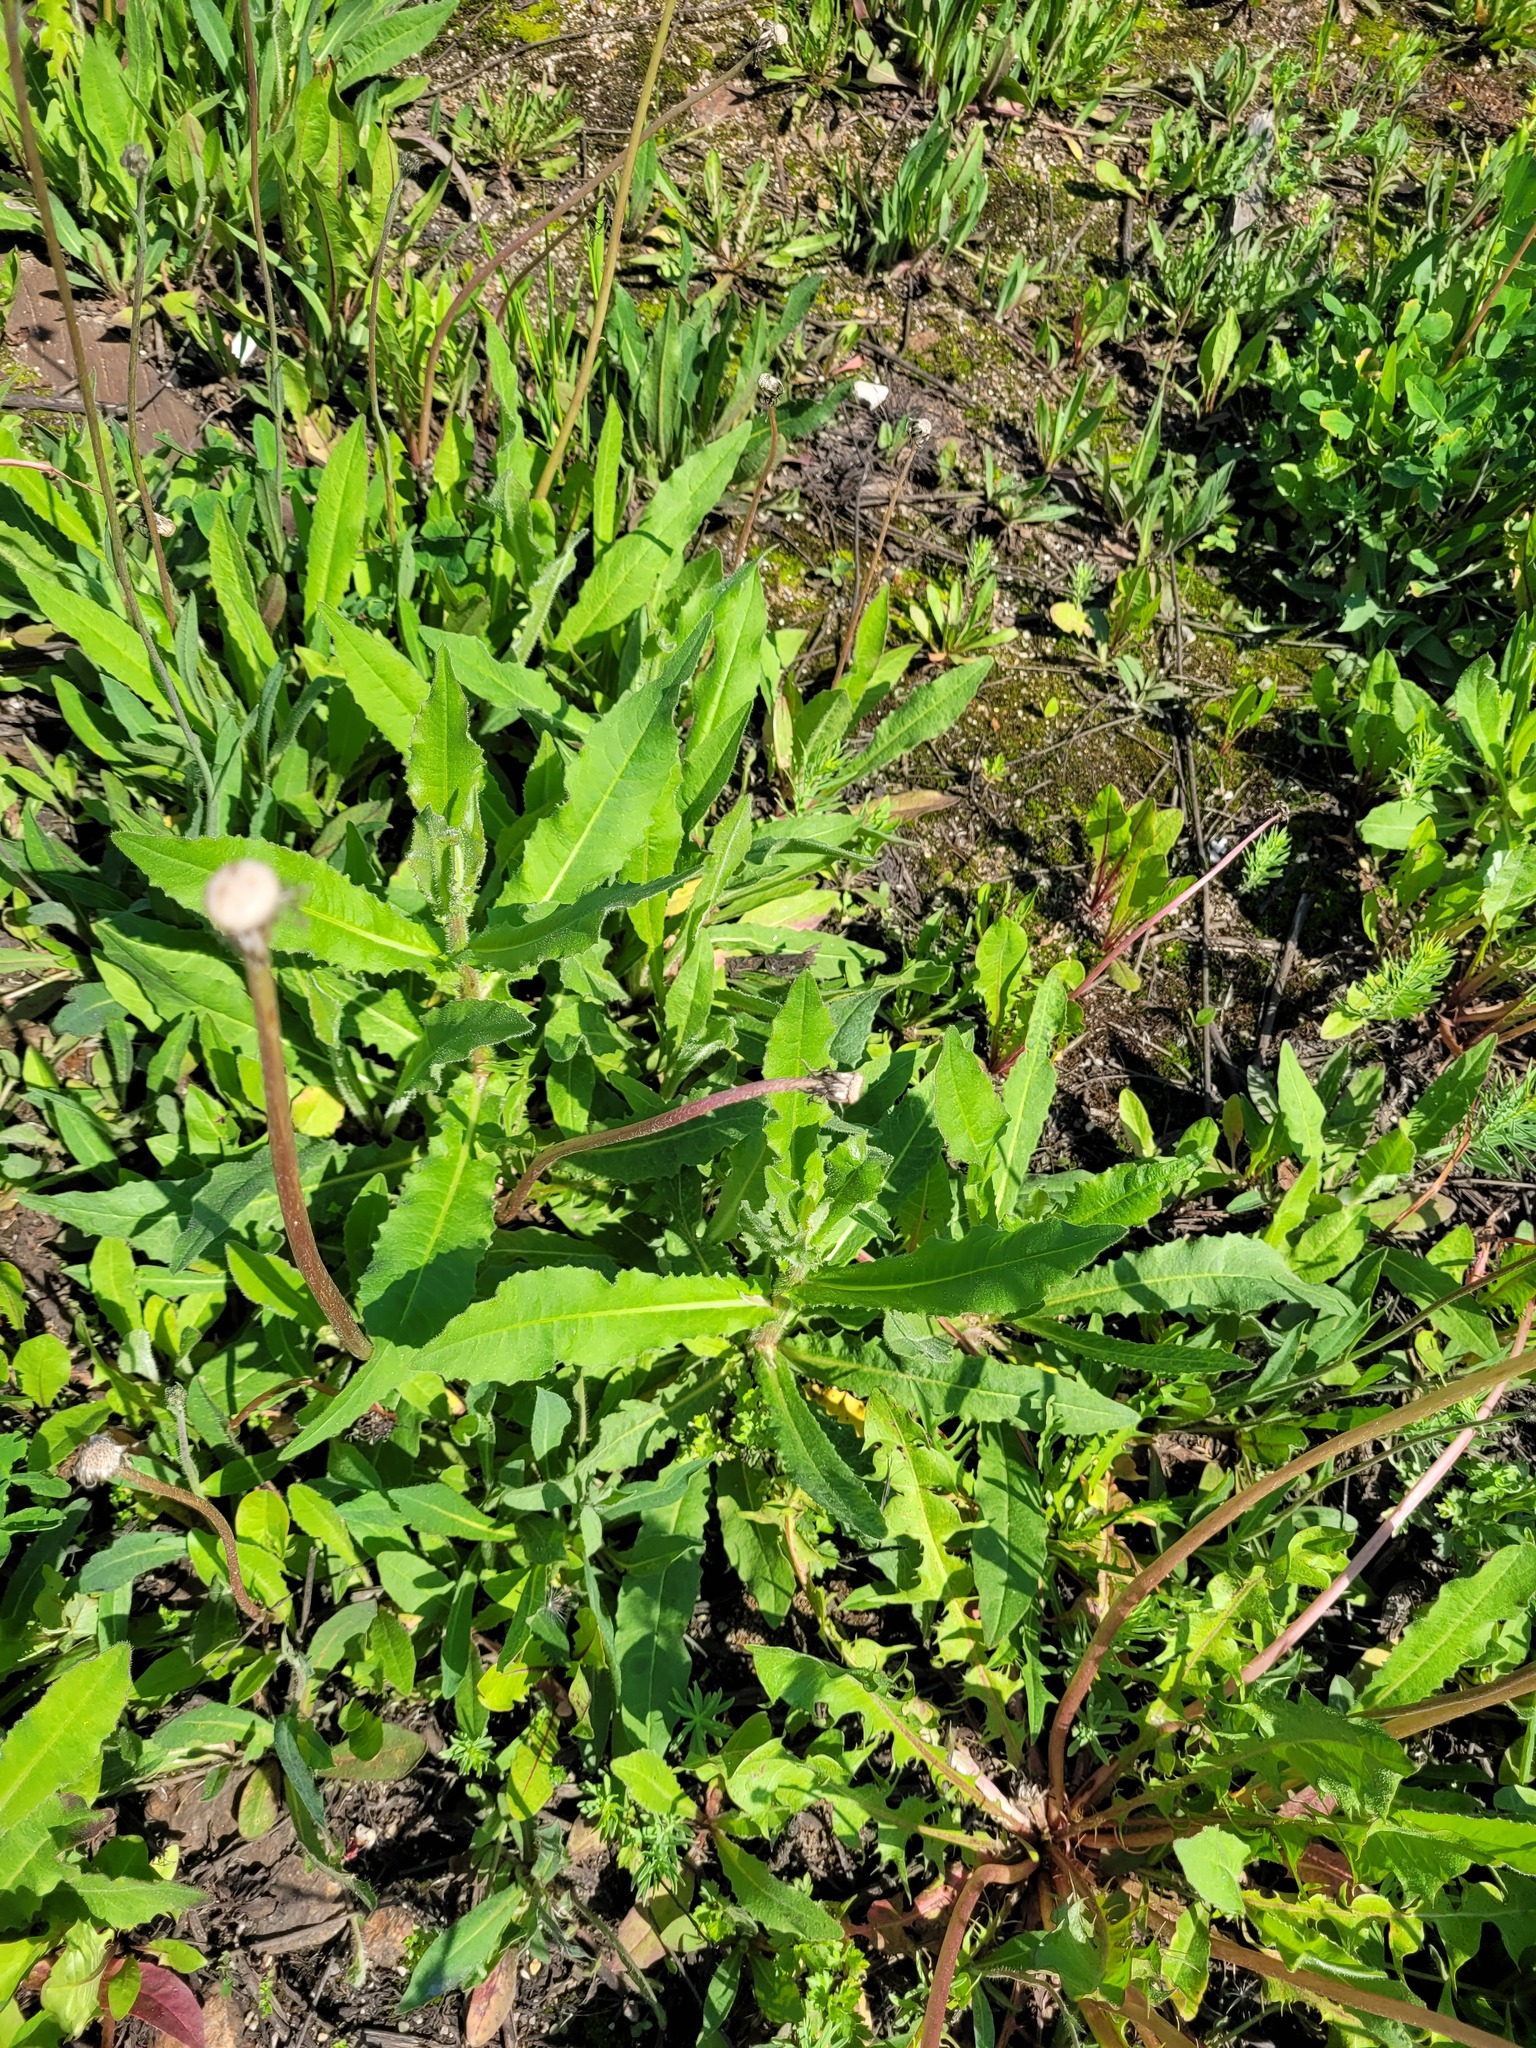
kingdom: Plantae
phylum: Tracheophyta
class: Magnoliopsida
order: Asterales
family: Asteraceae
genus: Picris
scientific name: Picris hieracioides
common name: Hawkweed oxtongue
